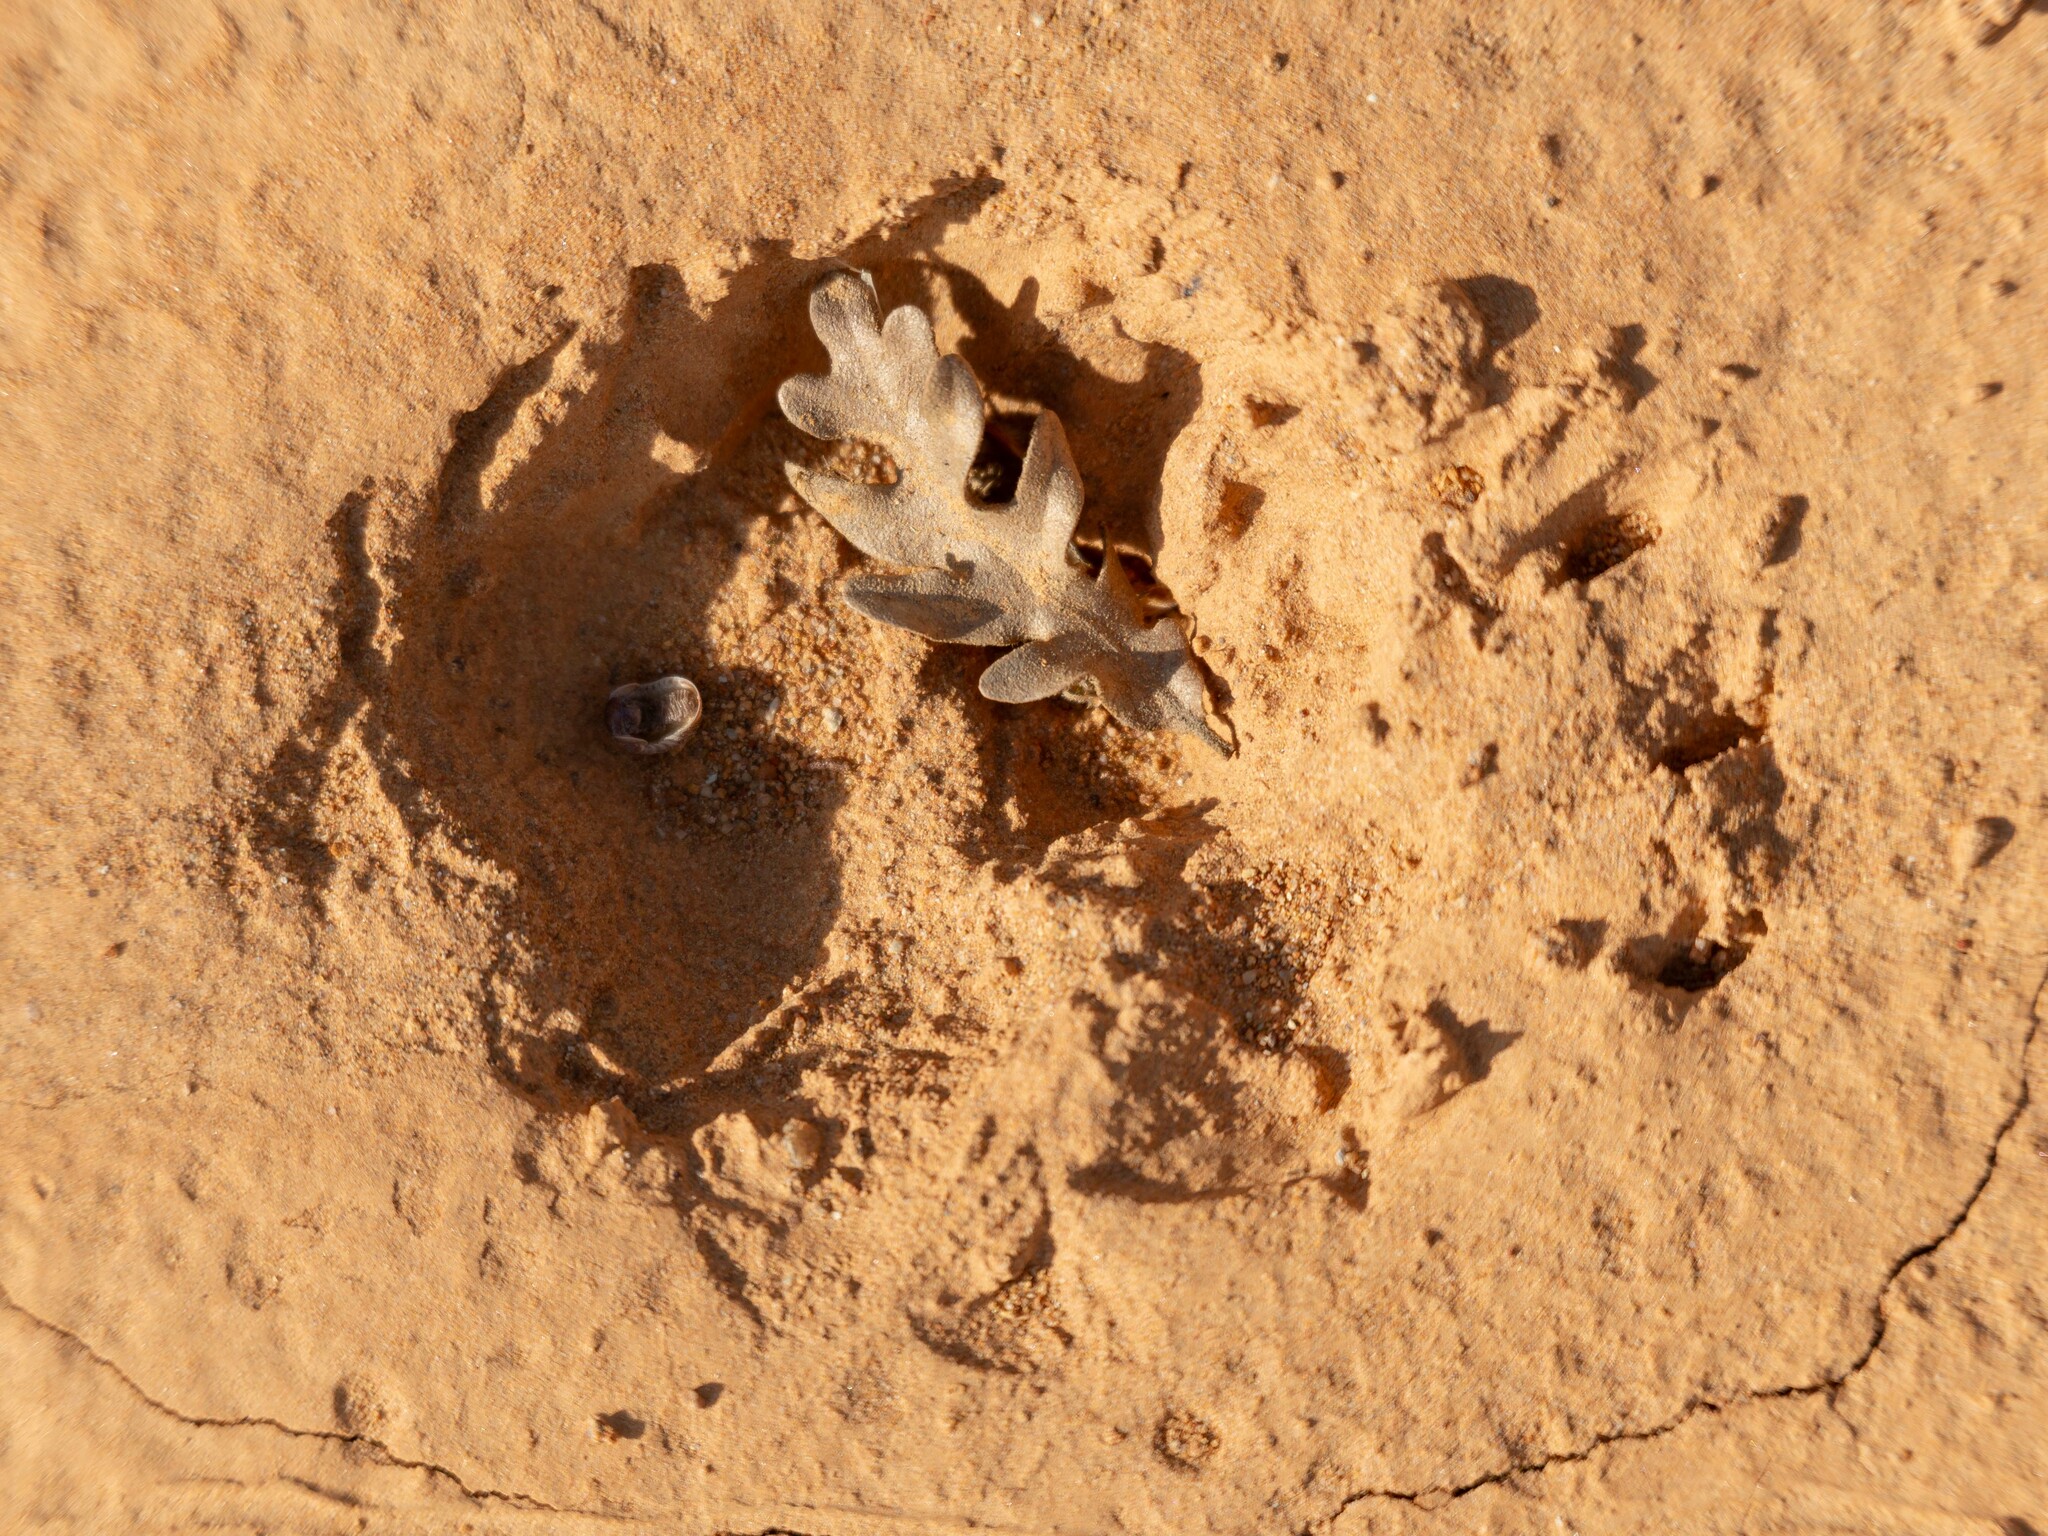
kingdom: Animalia
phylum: Chordata
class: Mammalia
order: Carnivora
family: Mustelidae
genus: Meles
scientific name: Meles meles
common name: Eurasian badger
